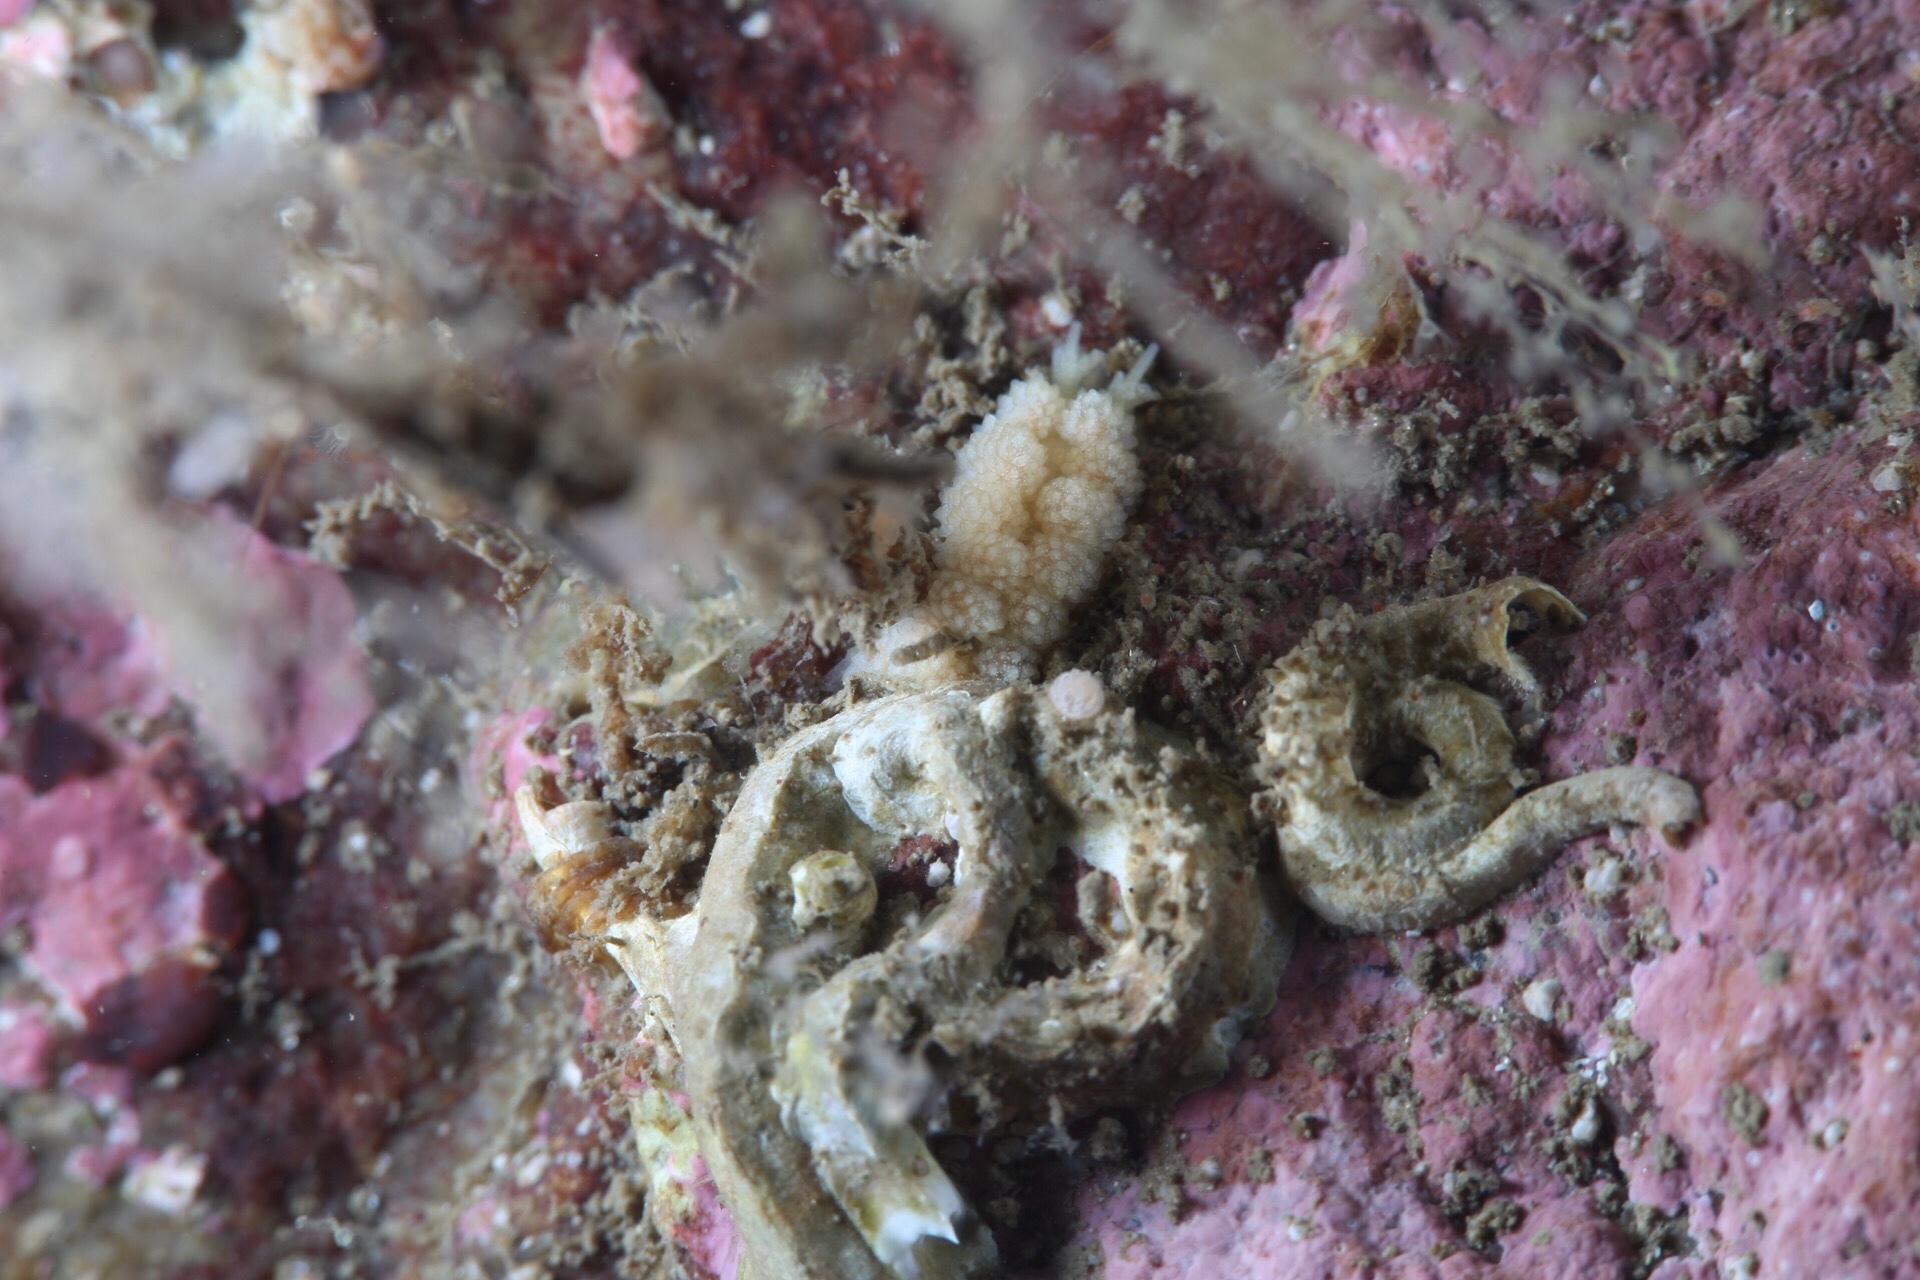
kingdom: Animalia
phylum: Mollusca
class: Gastropoda
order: Nudibranchia
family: Dotidae
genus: Doto
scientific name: Doto fragilis
